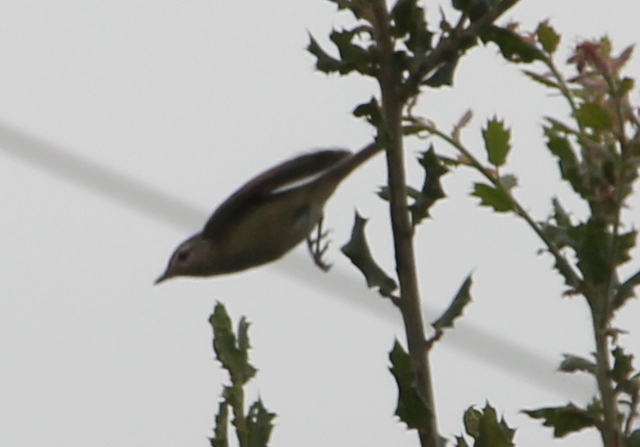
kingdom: Animalia
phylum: Chordata
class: Aves
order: Passeriformes
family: Vireonidae
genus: Vireo
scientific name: Vireo gilvus
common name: Warbling vireo
